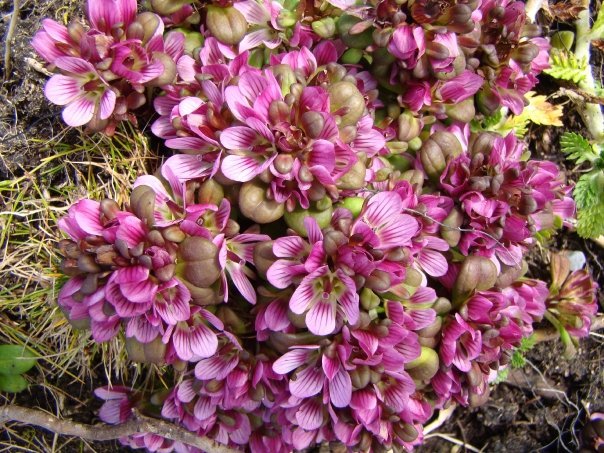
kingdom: Plantae
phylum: Tracheophyta
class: Magnoliopsida
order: Gentianales
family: Gentianaceae
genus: Gentianella
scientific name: Gentianella cerina
